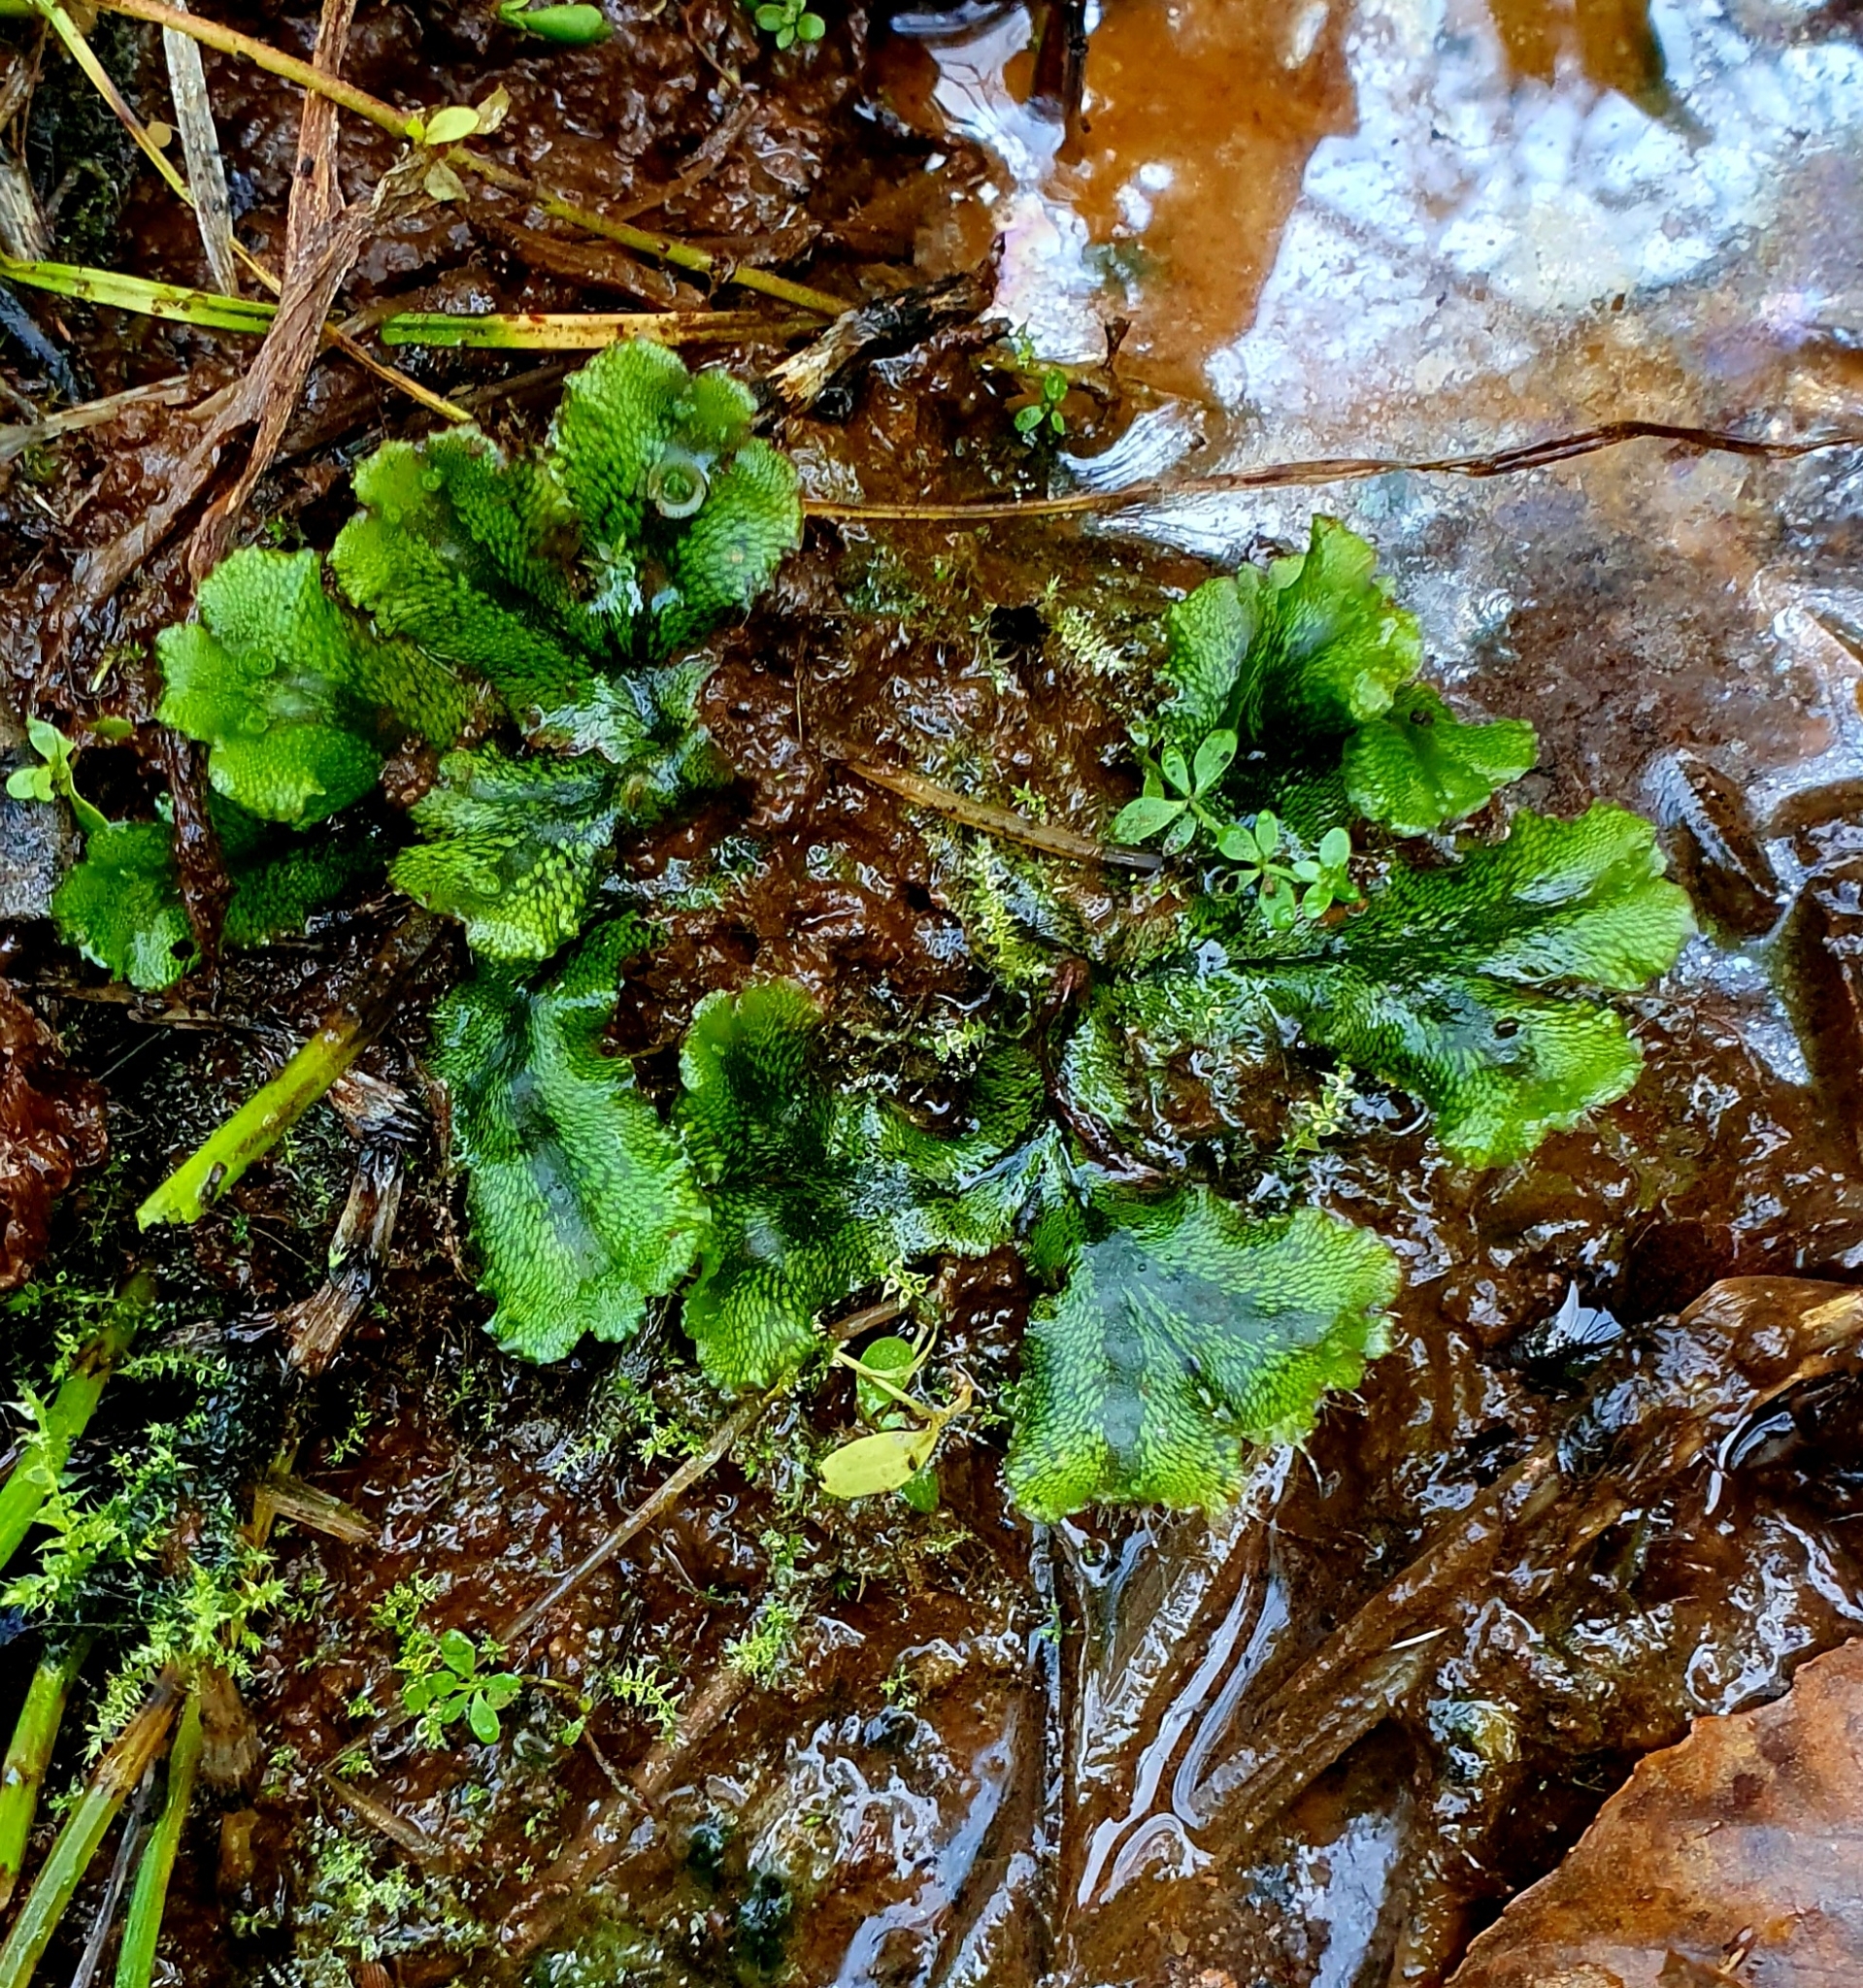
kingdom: Plantae
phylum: Marchantiophyta
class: Marchantiopsida
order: Marchantiales
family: Marchantiaceae
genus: Marchantia
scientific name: Marchantia polymorpha
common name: Common liverwort
